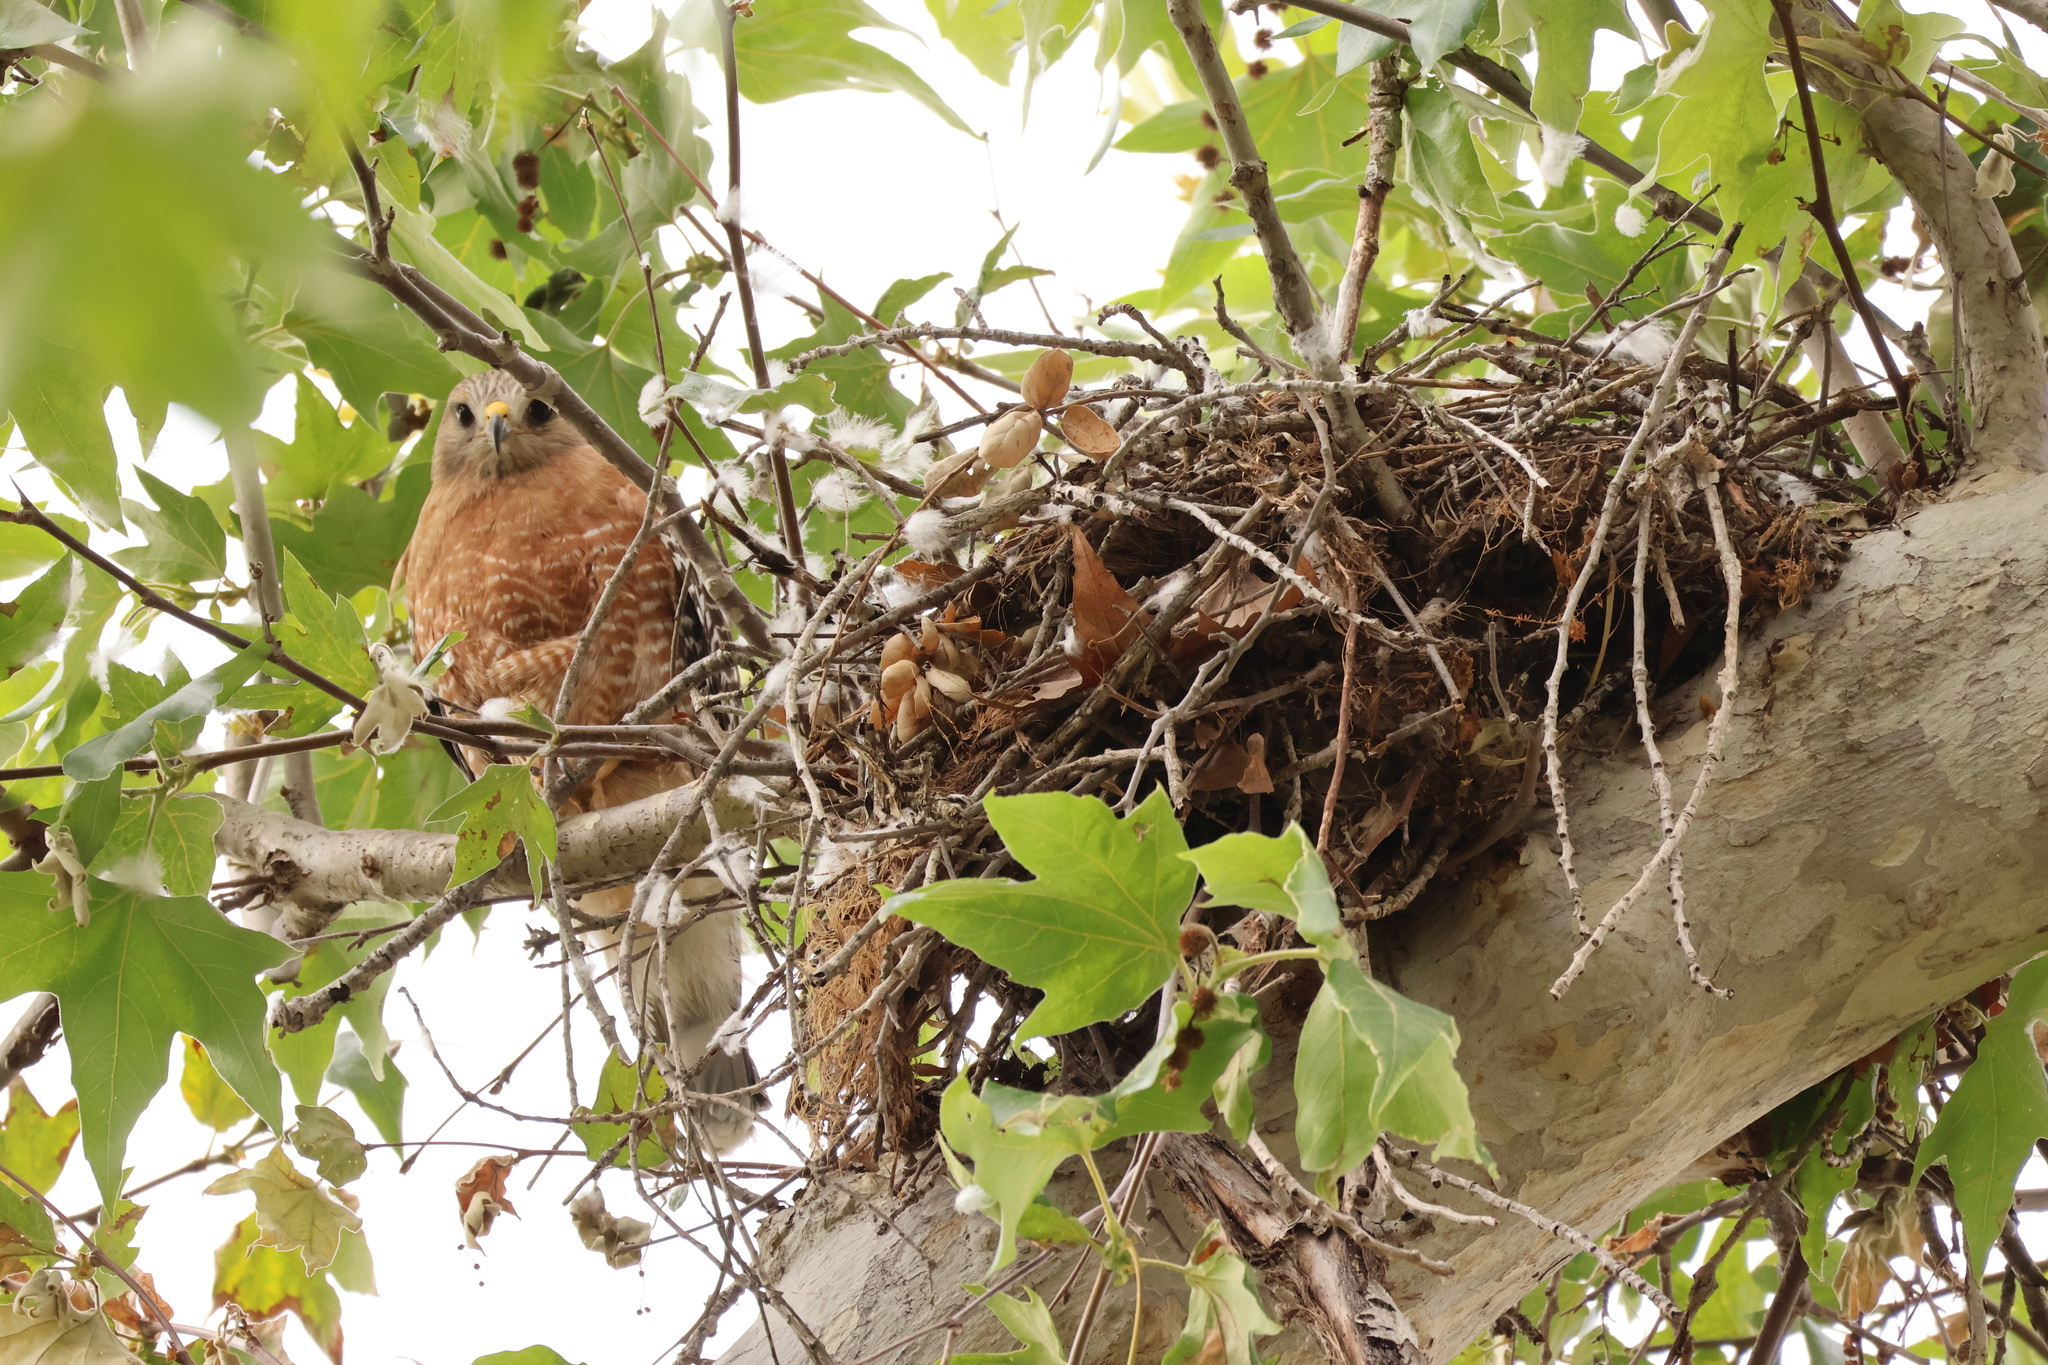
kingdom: Animalia
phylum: Chordata
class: Aves
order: Accipitriformes
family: Accipitridae
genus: Buteo
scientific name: Buteo lineatus
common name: Red-shouldered hawk
